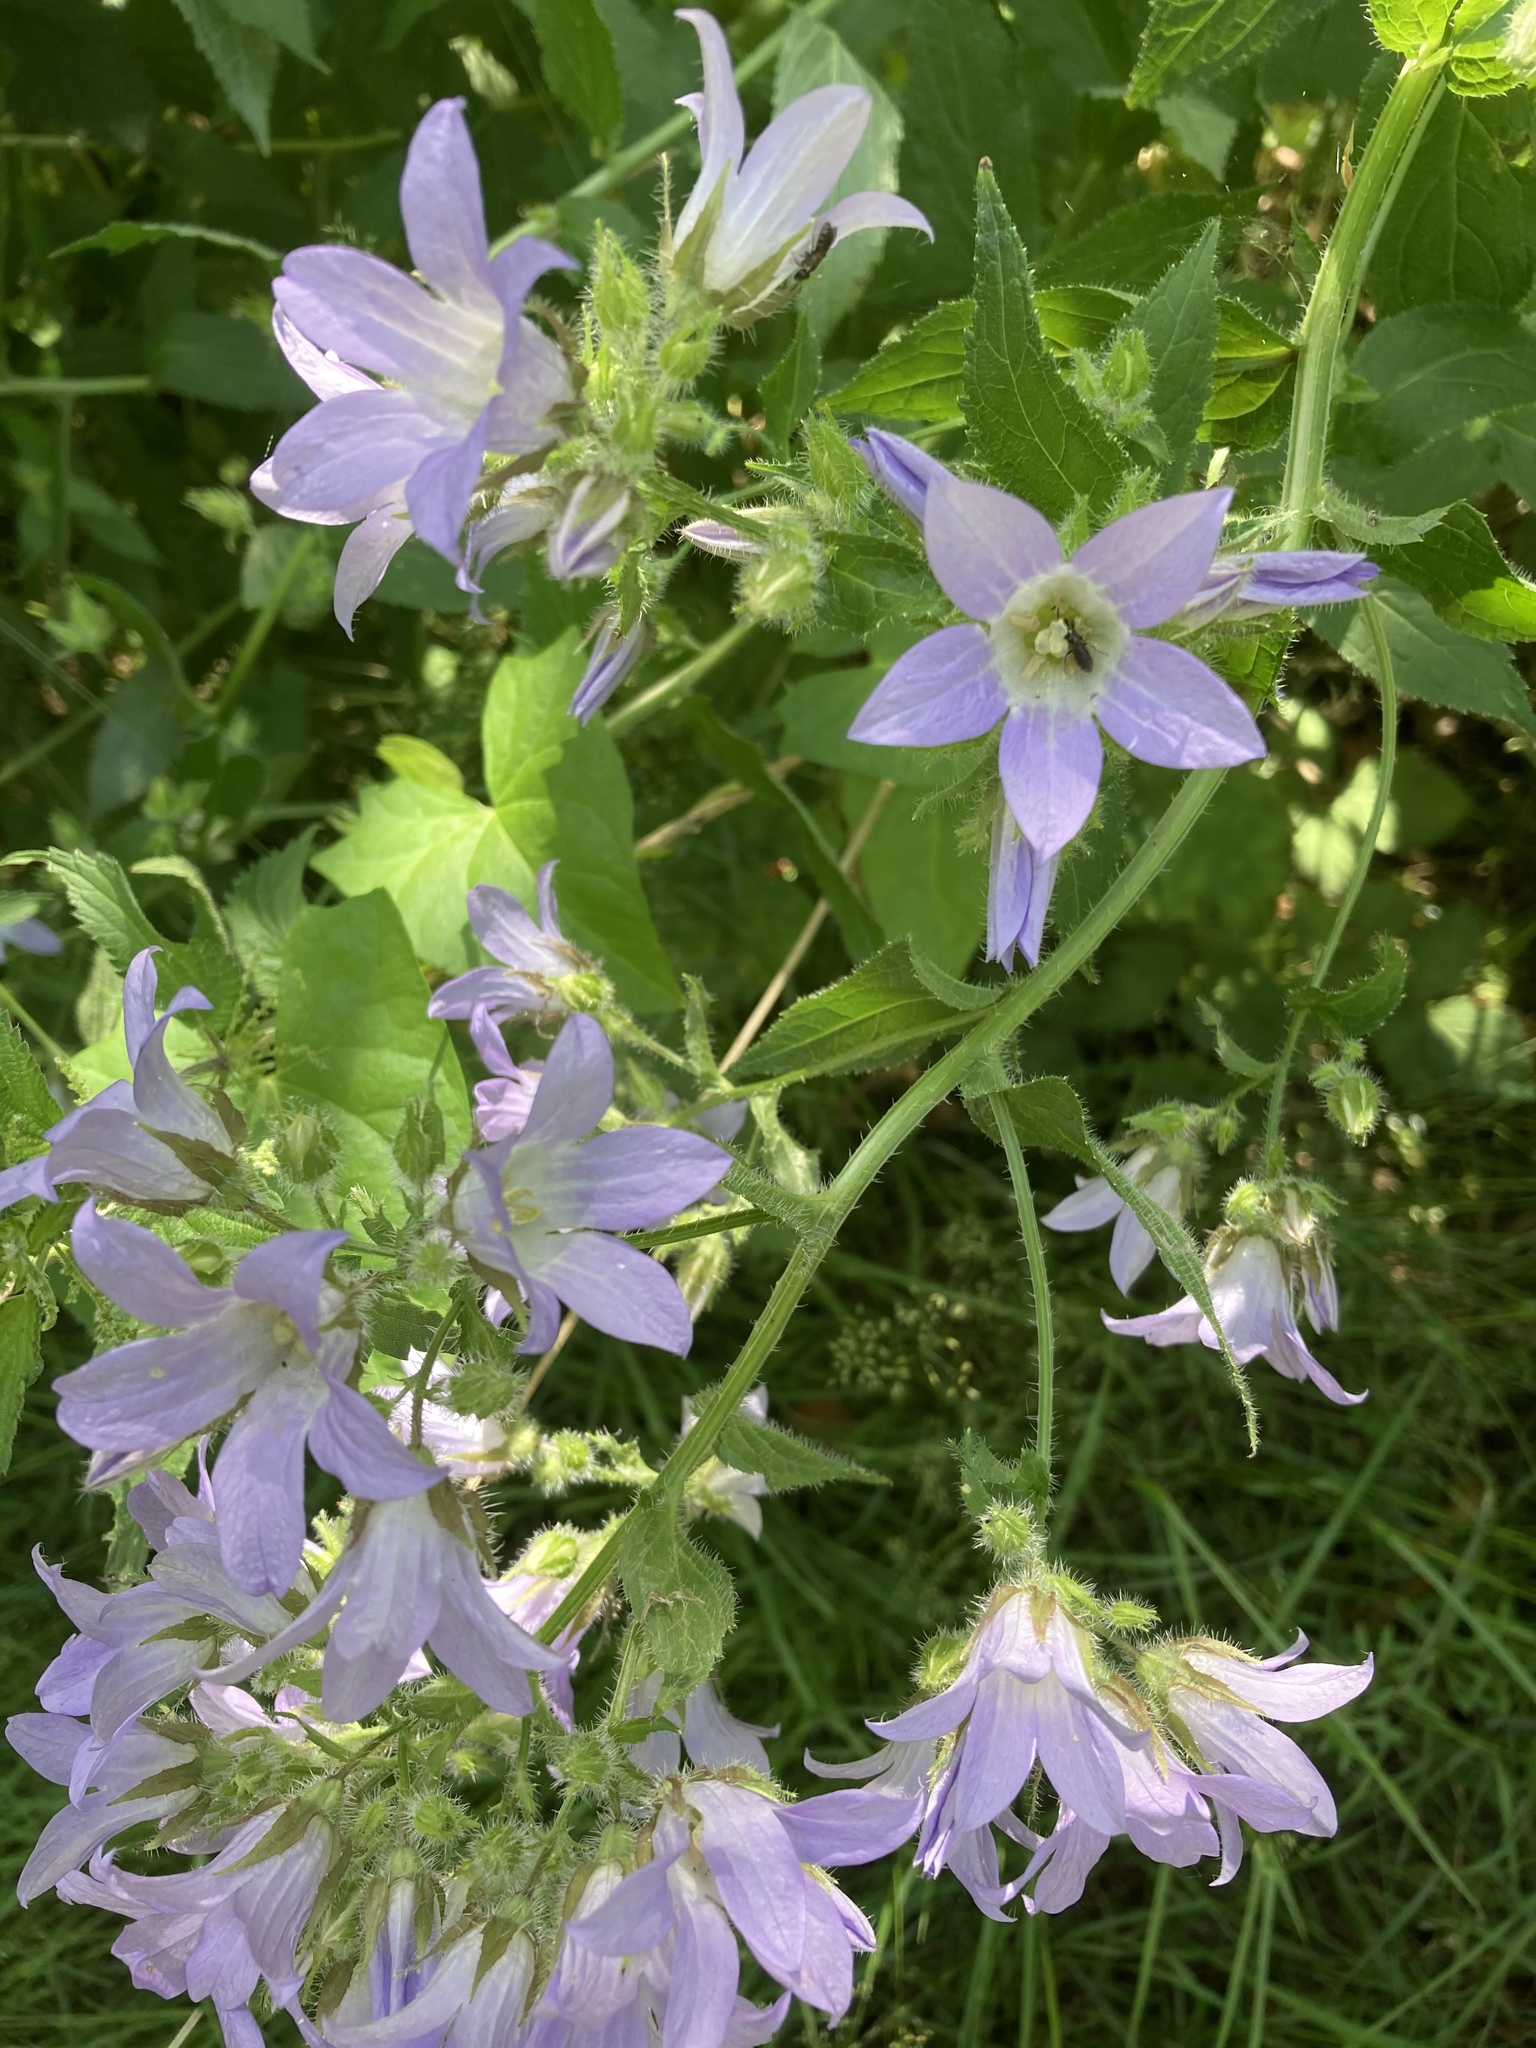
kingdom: Plantae
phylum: Tracheophyta
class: Magnoliopsida
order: Asterales
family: Campanulaceae
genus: Campanula
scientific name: Campanula lactiflora
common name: Milky bellflower
